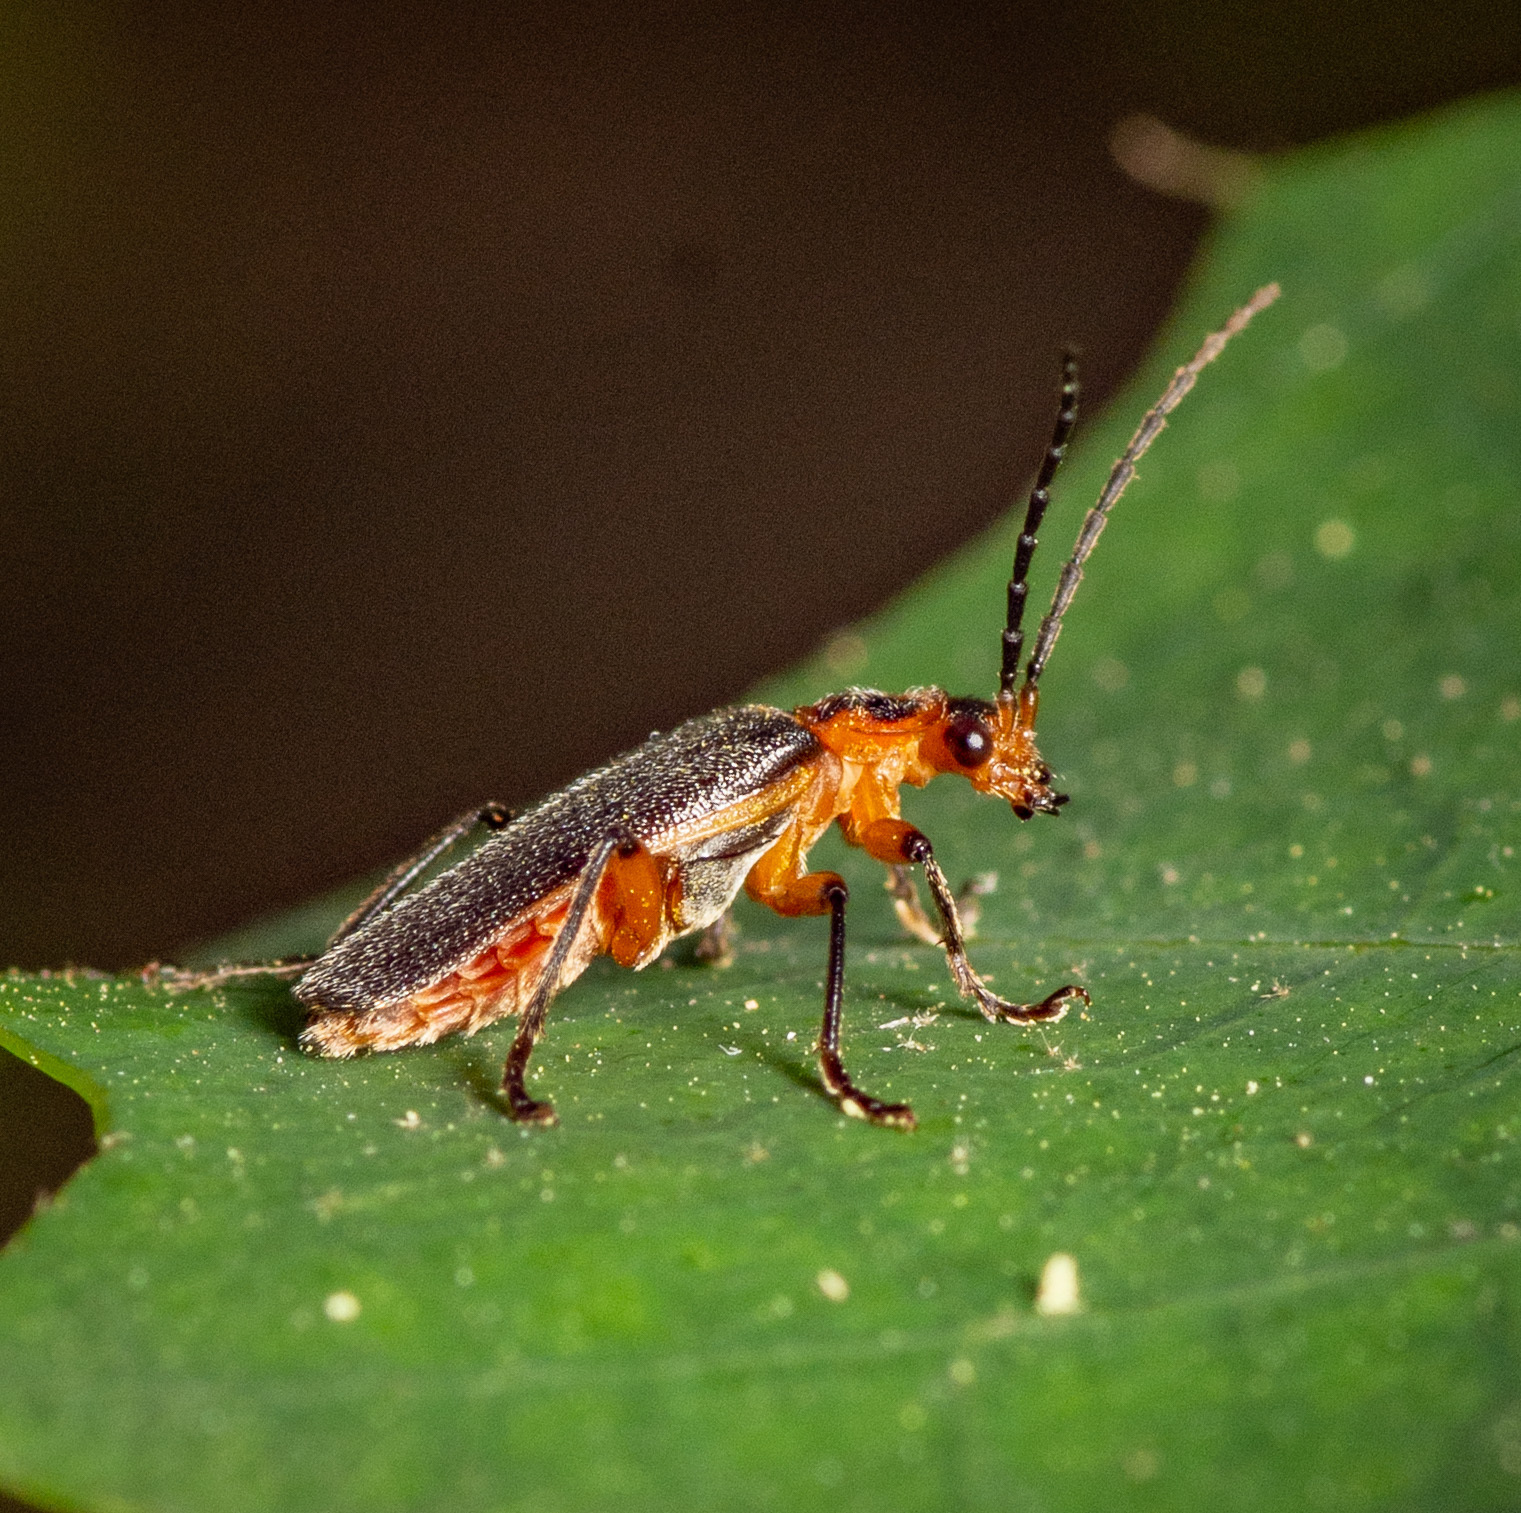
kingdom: Animalia
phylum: Arthropoda
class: Insecta
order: Coleoptera
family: Cantharidae
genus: Atalantycha
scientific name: Atalantycha bilineata
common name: Two-lined leatherwing
